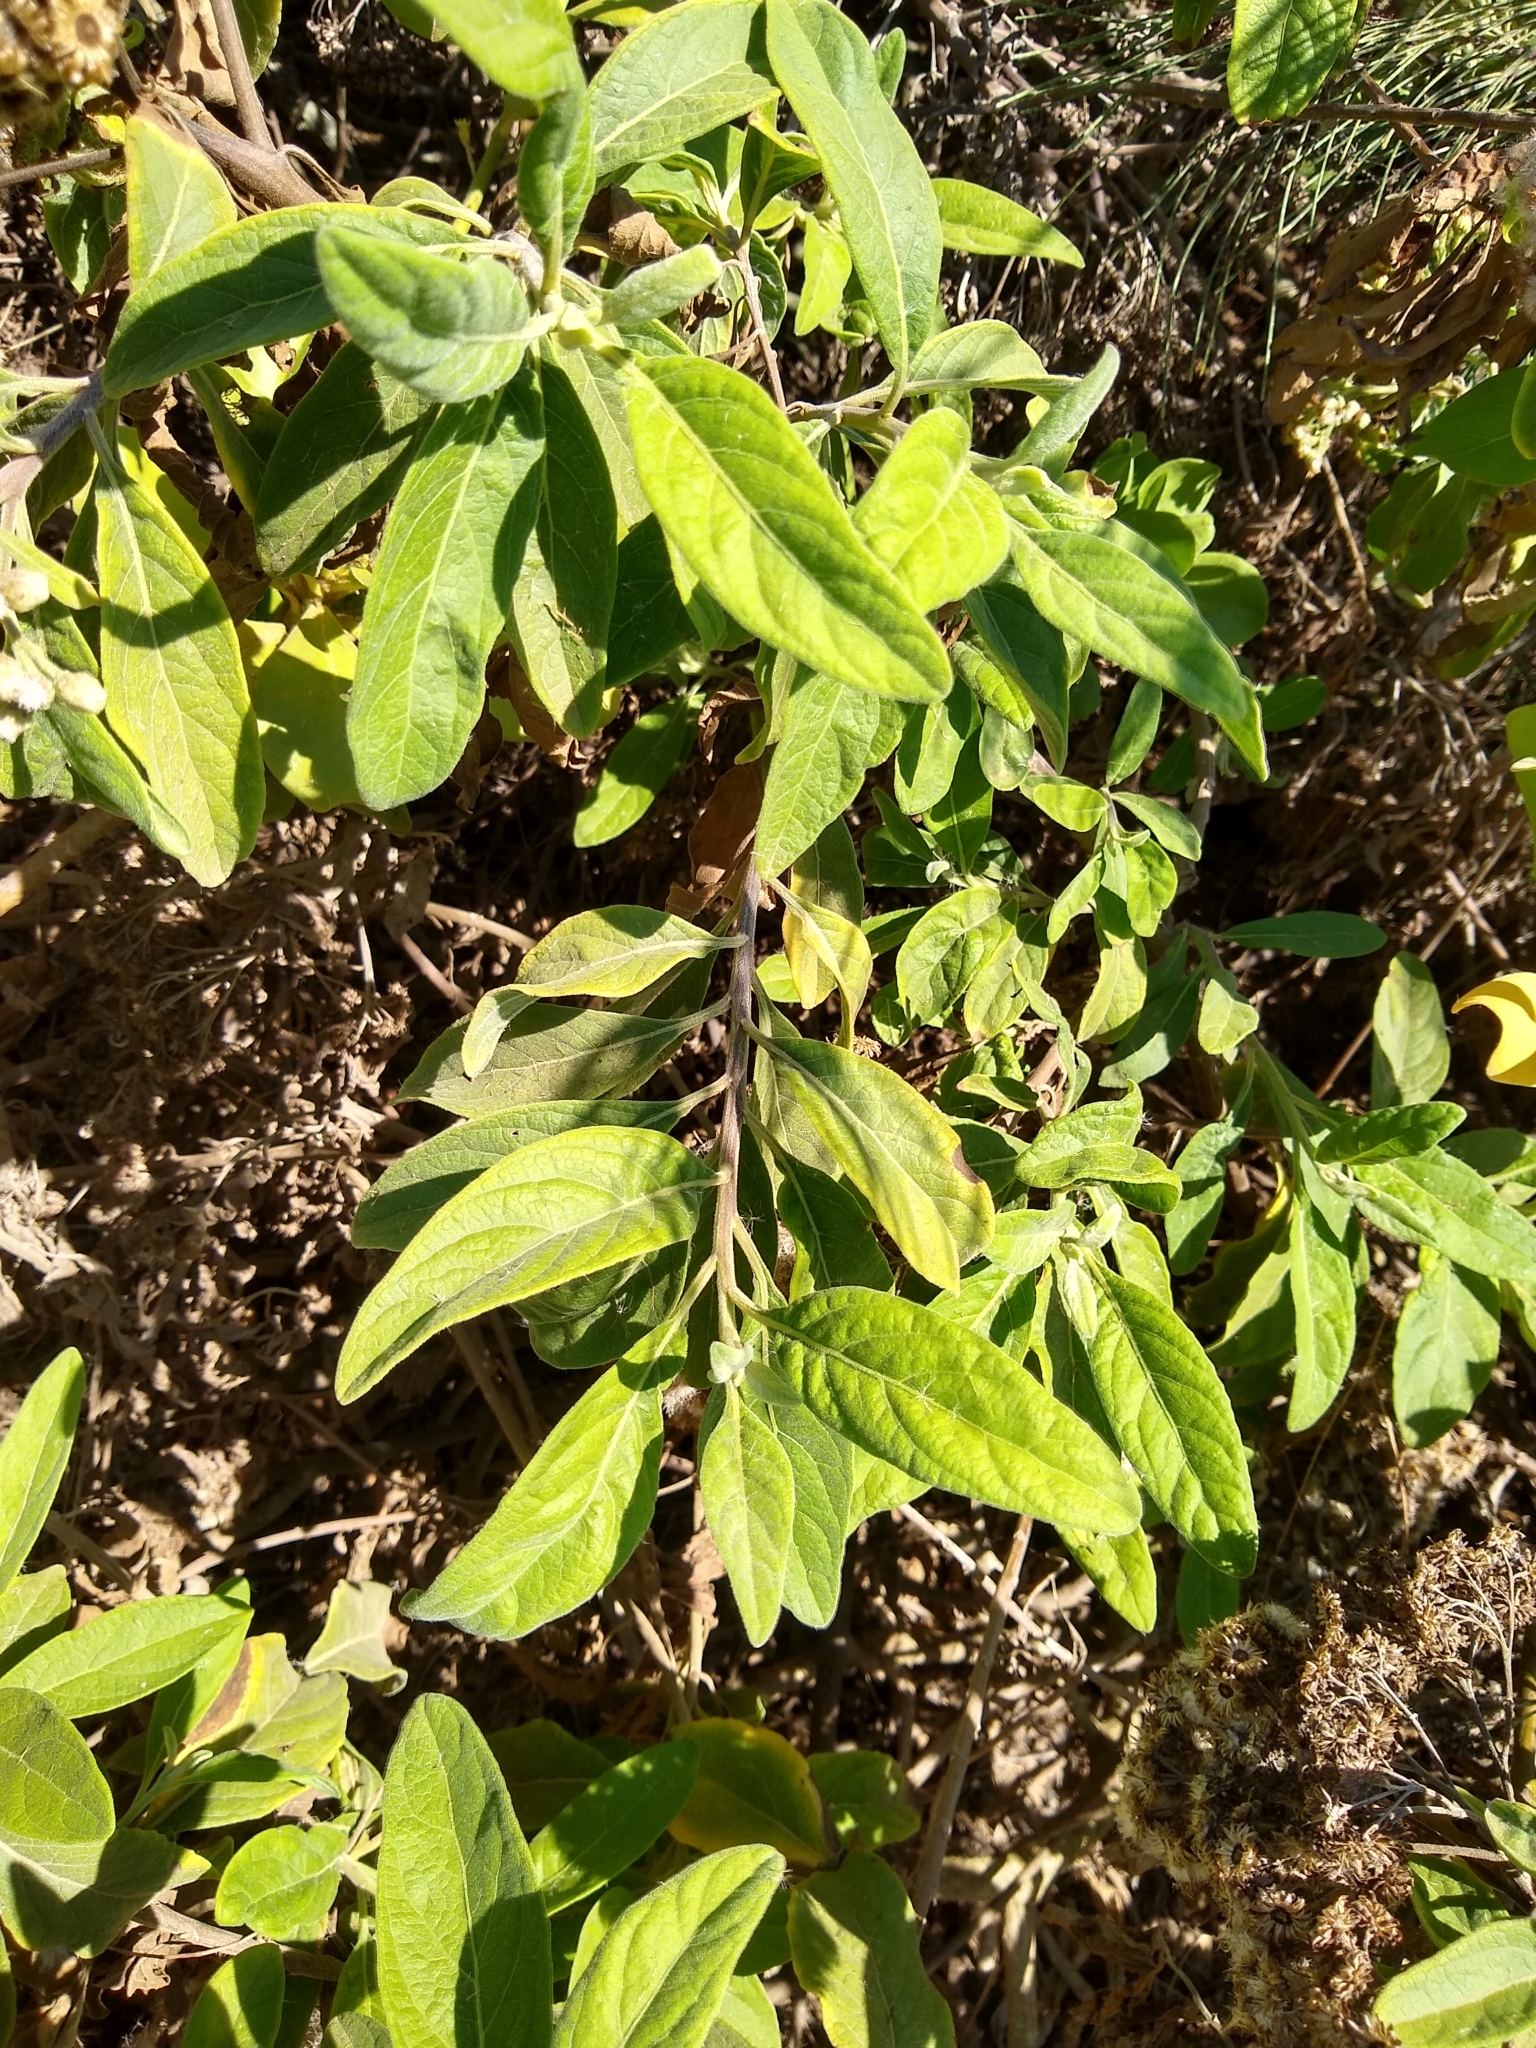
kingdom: Plantae
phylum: Tracheophyta
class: Magnoliopsida
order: Asterales
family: Asteraceae
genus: Pluchea
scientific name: Pluchea carolinensis
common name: Marsh fleabane
